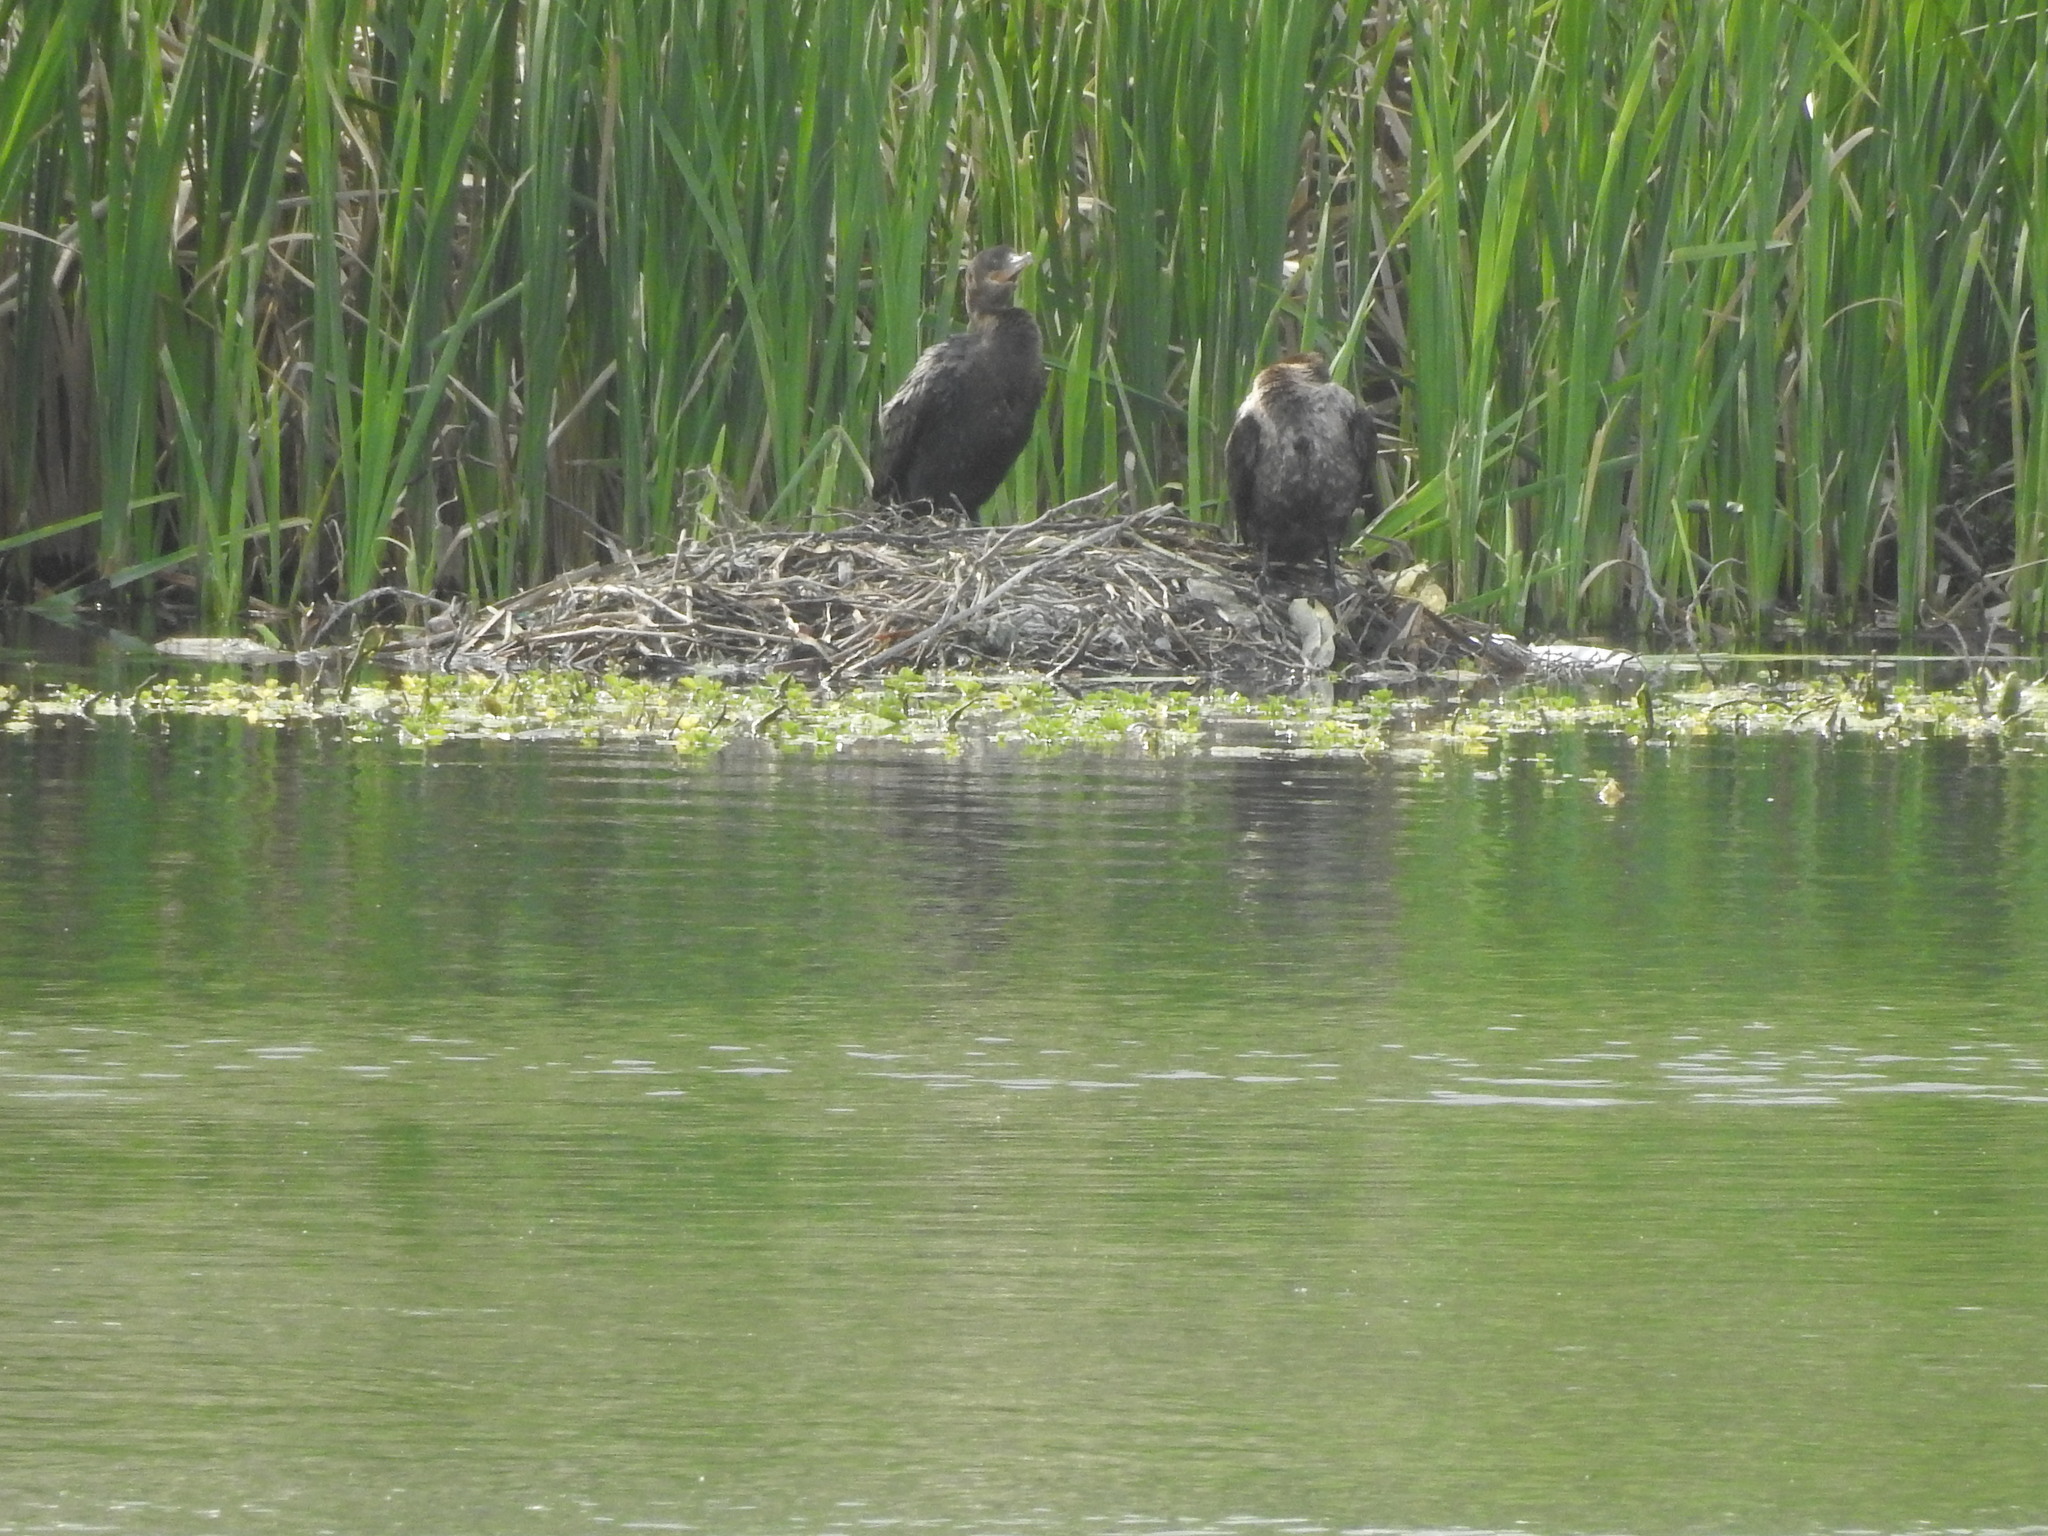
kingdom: Animalia
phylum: Chordata
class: Aves
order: Suliformes
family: Phalacrocoracidae
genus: Phalacrocorax
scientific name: Phalacrocorax brasilianus
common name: Neotropic cormorant
